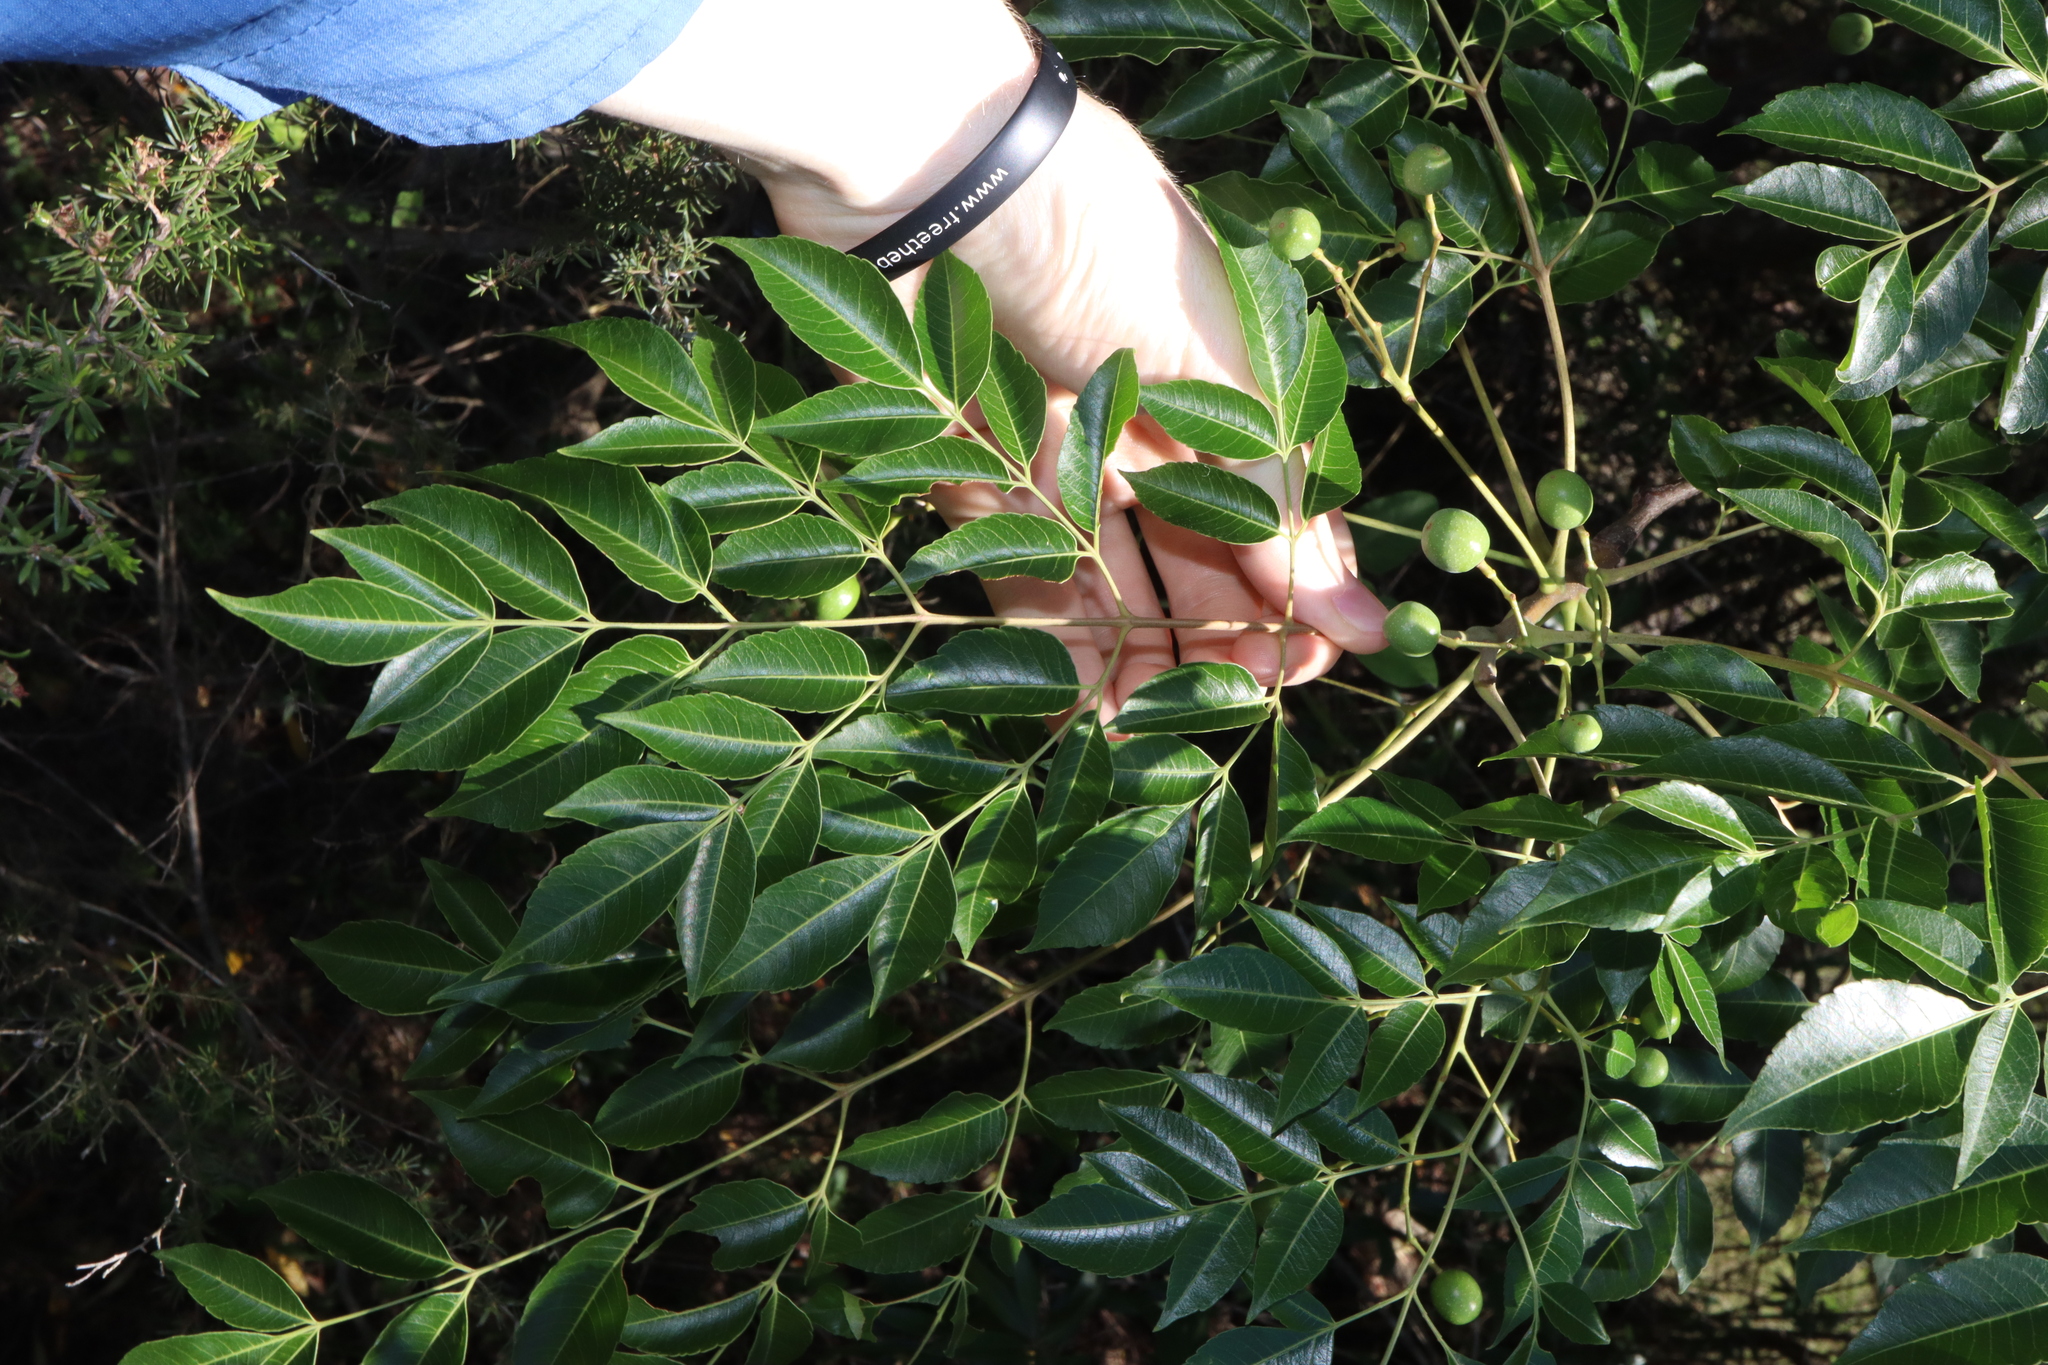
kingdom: Plantae
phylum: Tracheophyta
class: Magnoliopsida
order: Sapindales
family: Meliaceae
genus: Melia
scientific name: Melia azedarach
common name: Chinaberrytree
